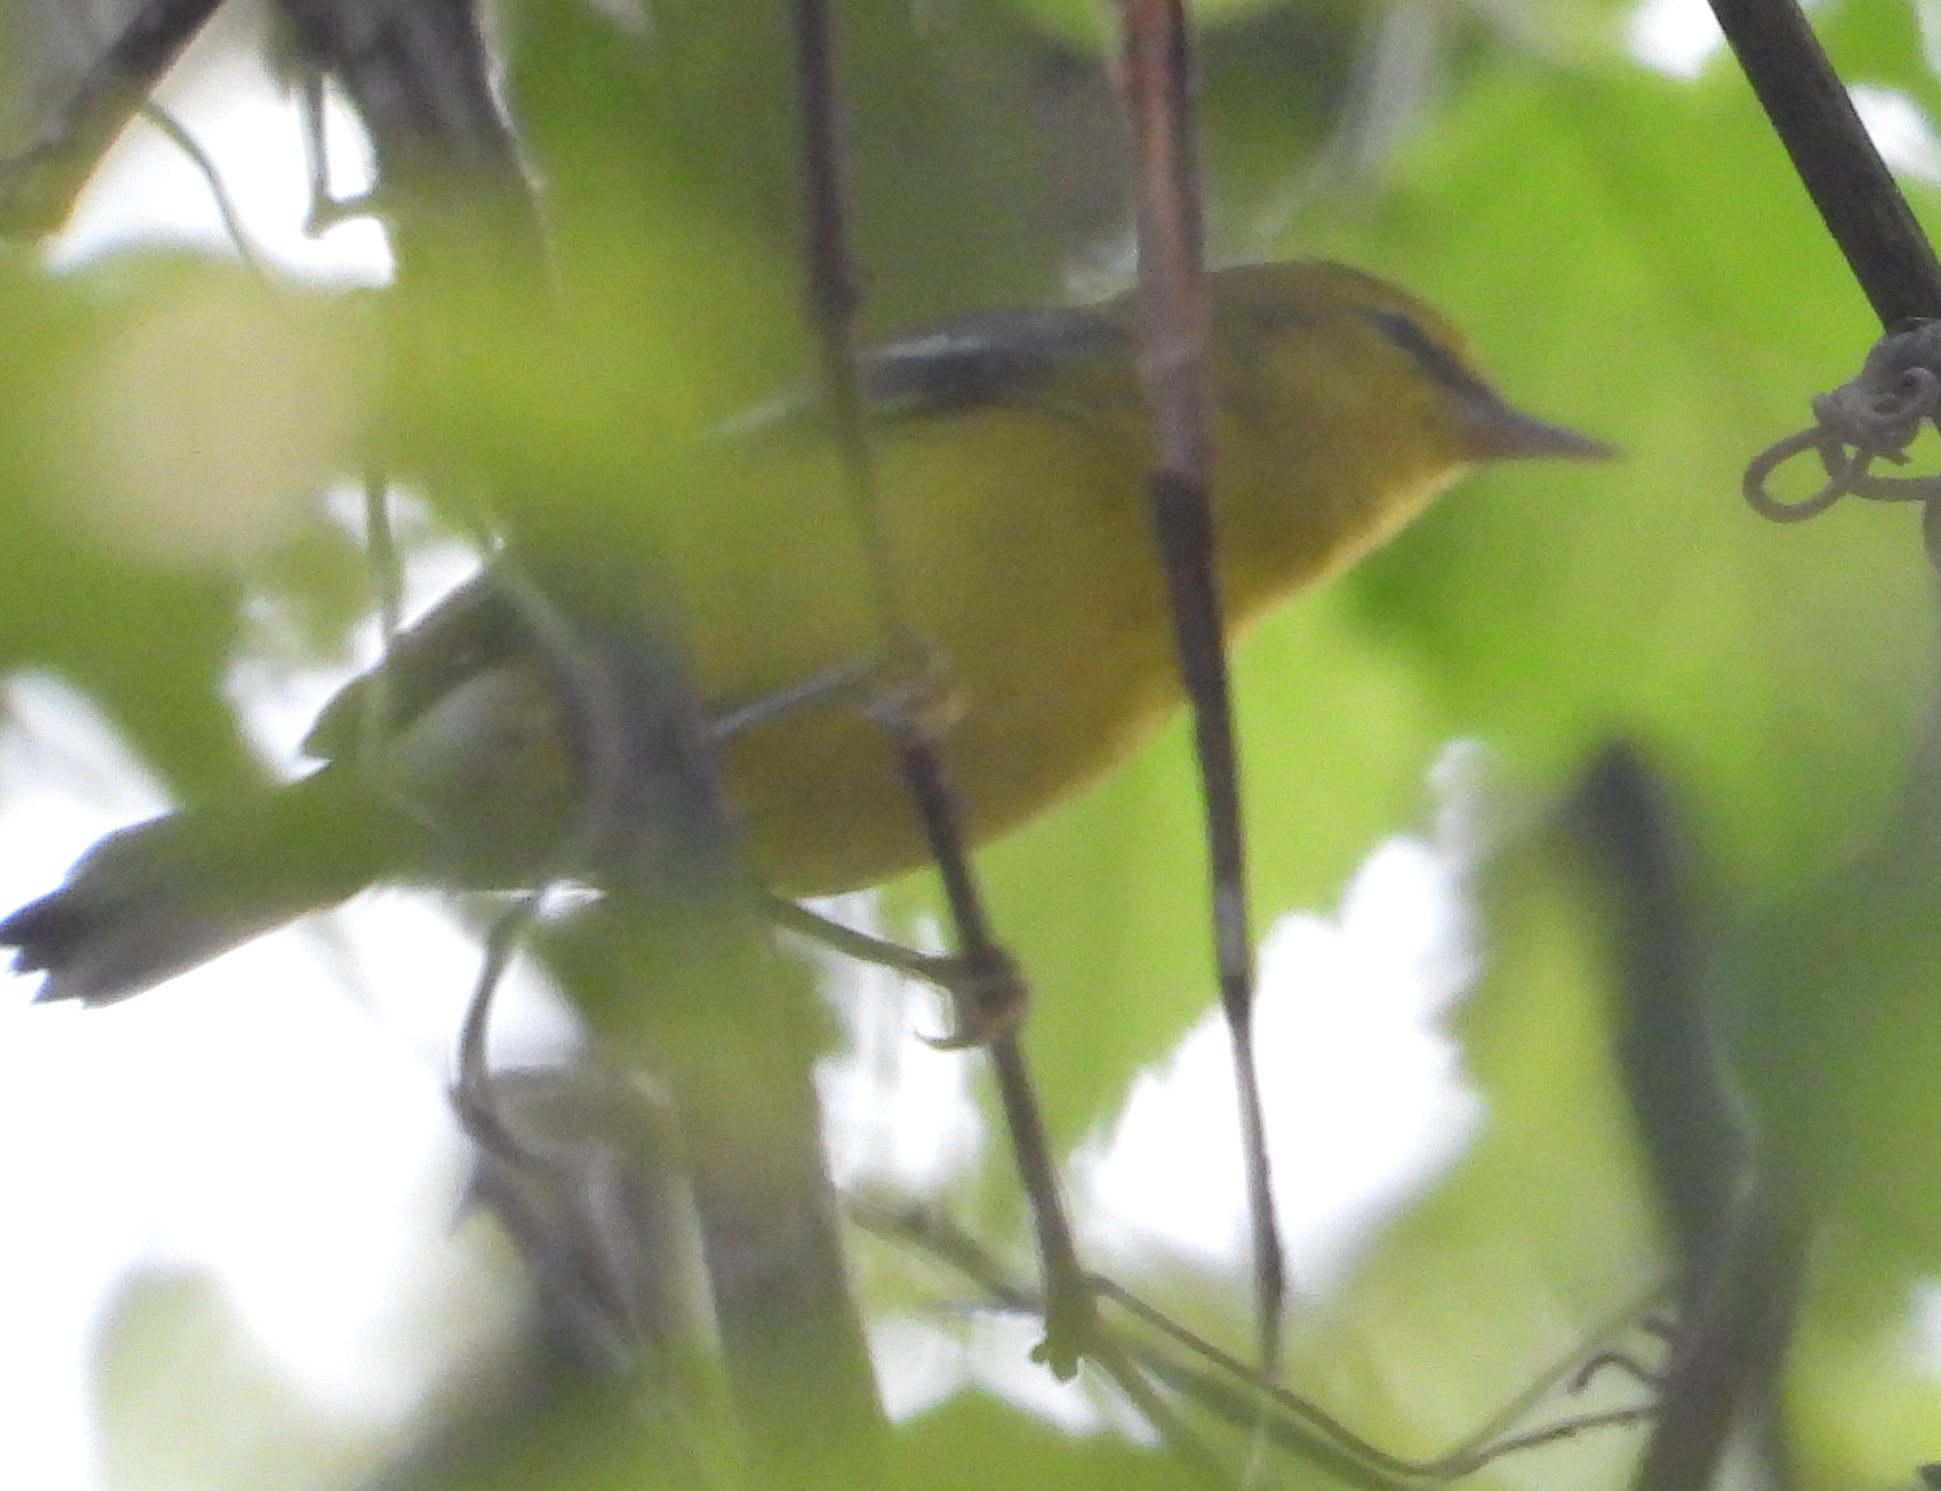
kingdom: Animalia
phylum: Chordata
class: Aves
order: Passeriformes
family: Parulidae
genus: Vermivora
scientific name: Vermivora cyanoptera
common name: Blue-winged warbler
